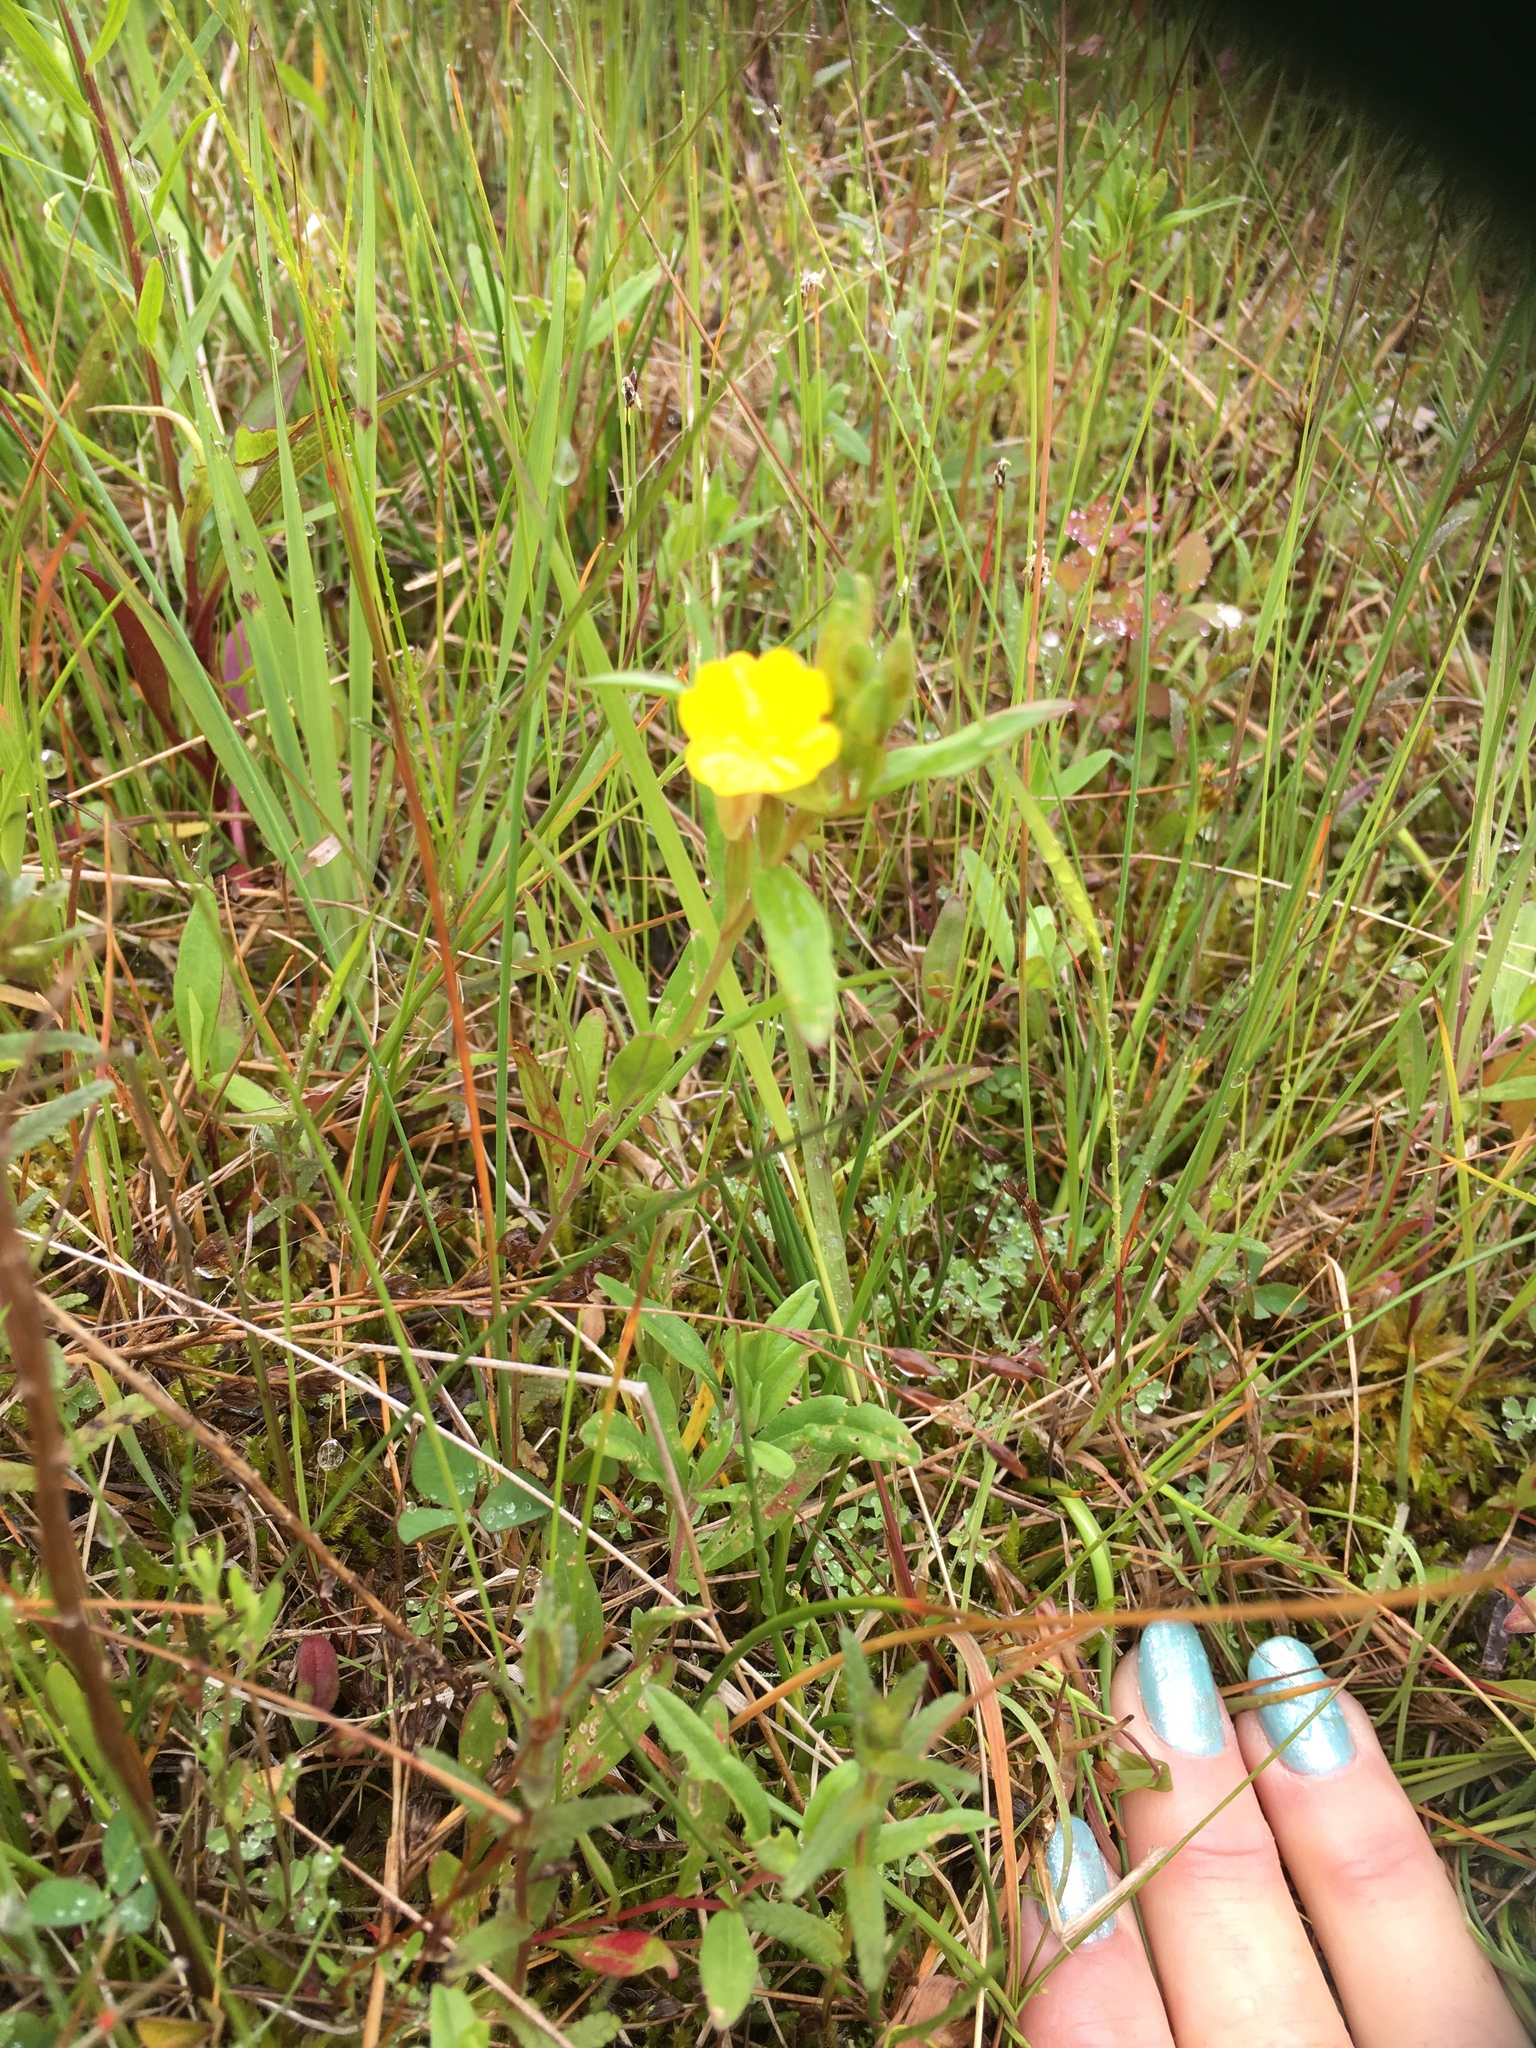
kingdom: Plantae
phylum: Tracheophyta
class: Magnoliopsida
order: Myrtales
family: Onagraceae
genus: Oenothera
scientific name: Oenothera perennis
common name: Small sundrops
